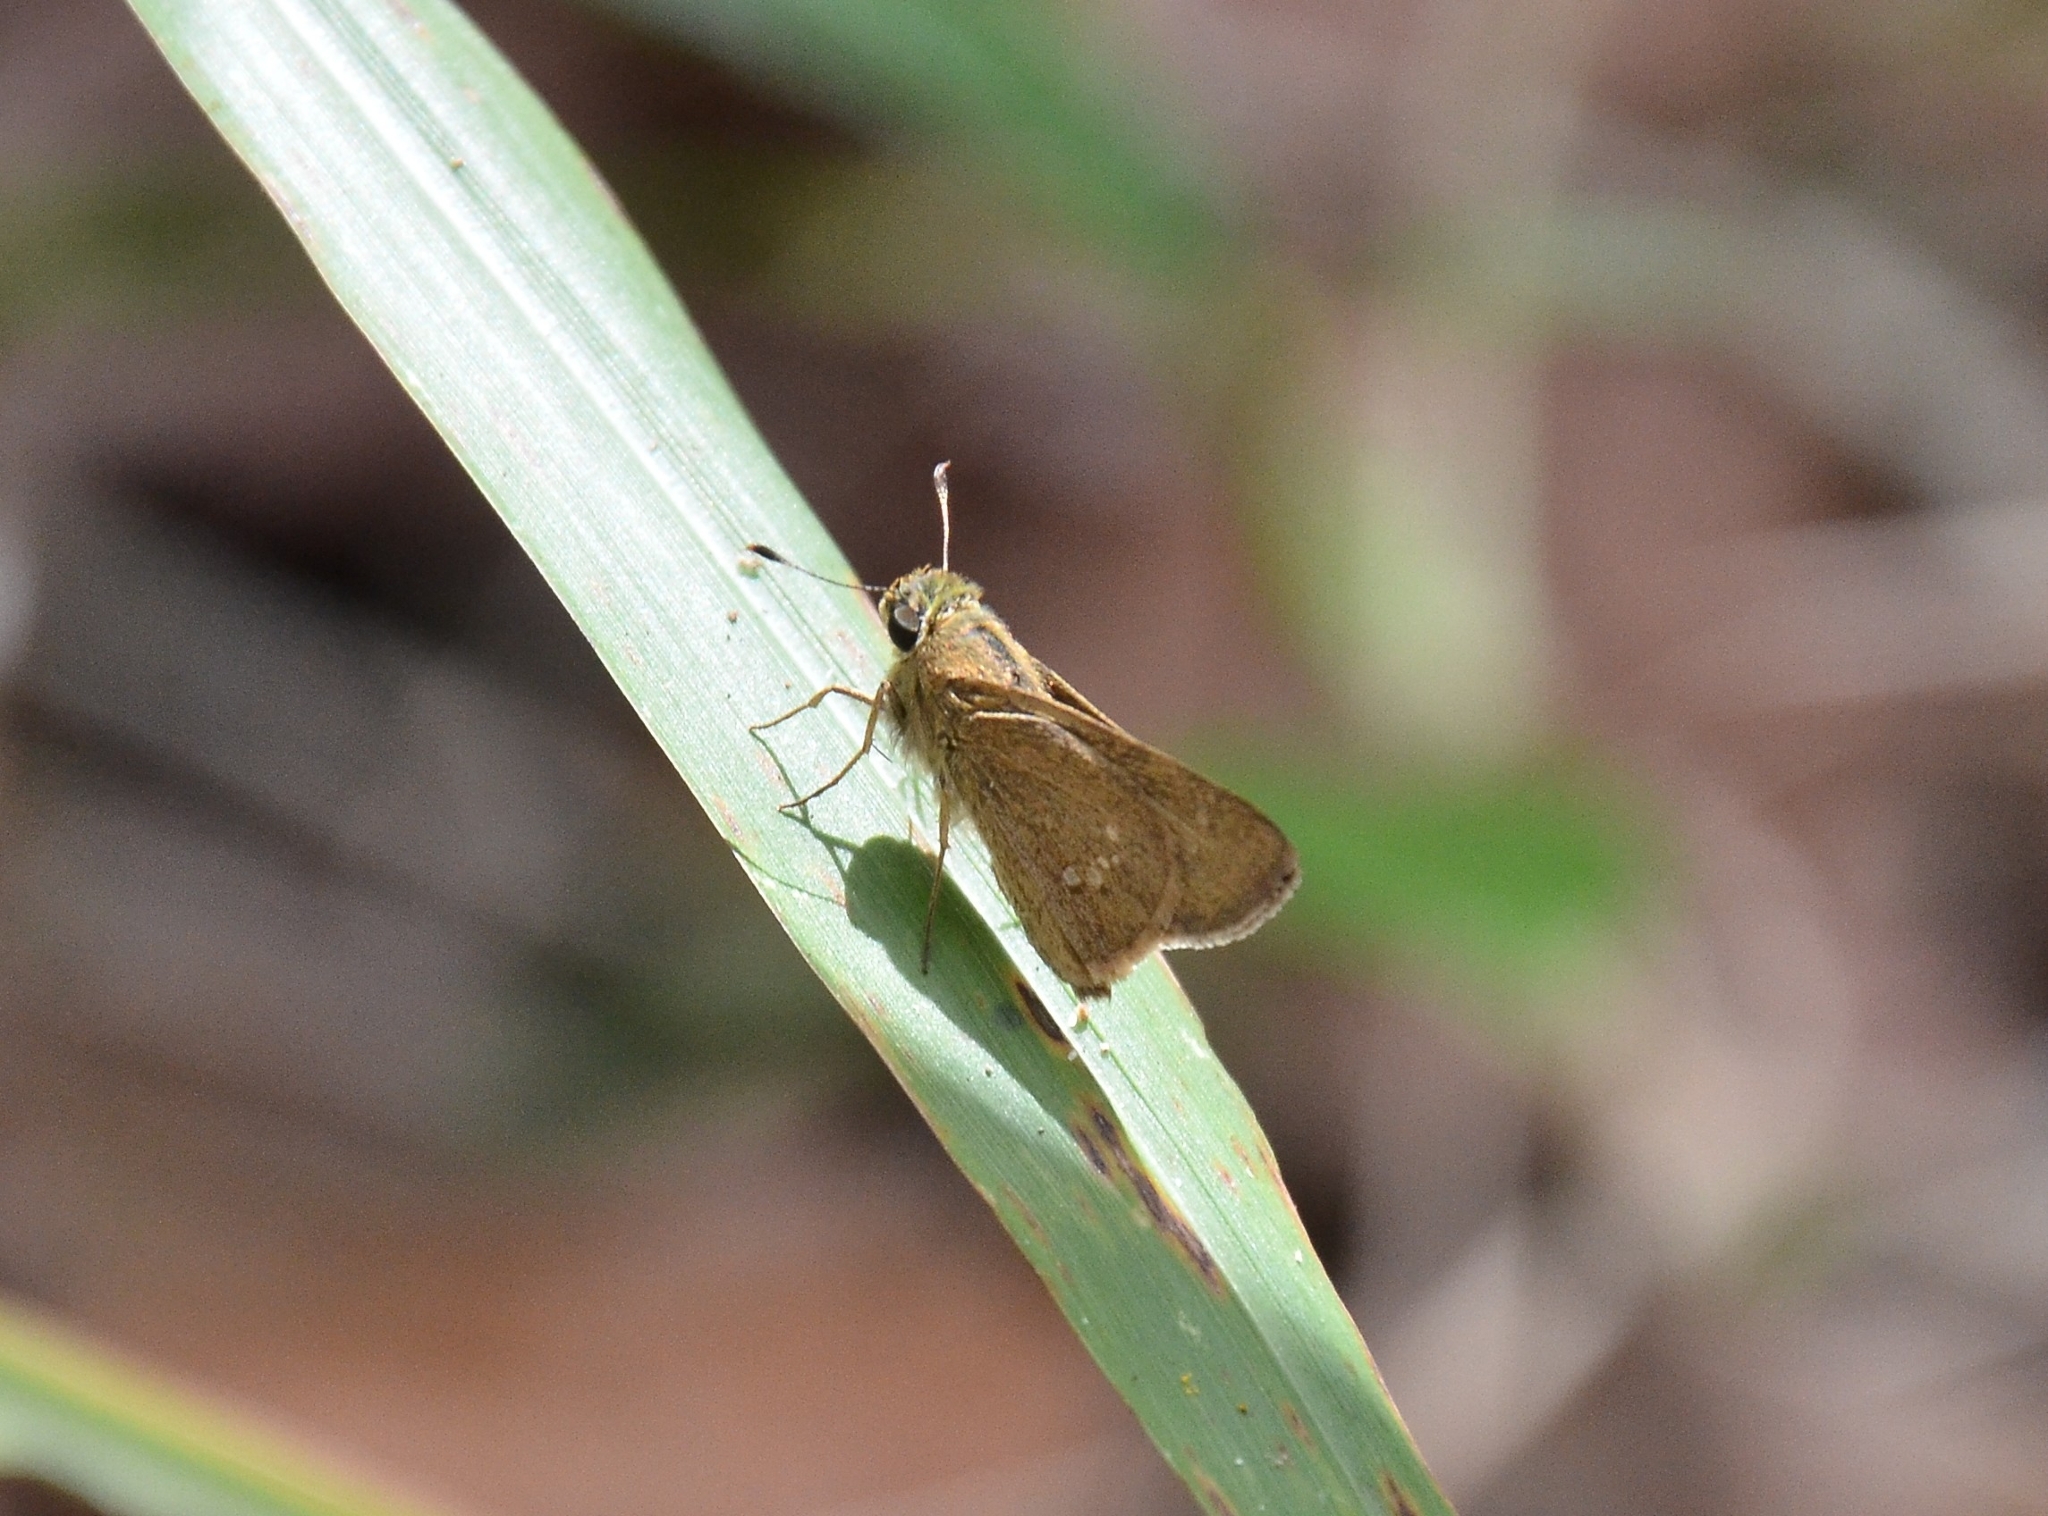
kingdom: Animalia
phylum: Arthropoda
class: Insecta
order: Lepidoptera
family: Hesperiidae
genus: Parnara
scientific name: Parnara naso
